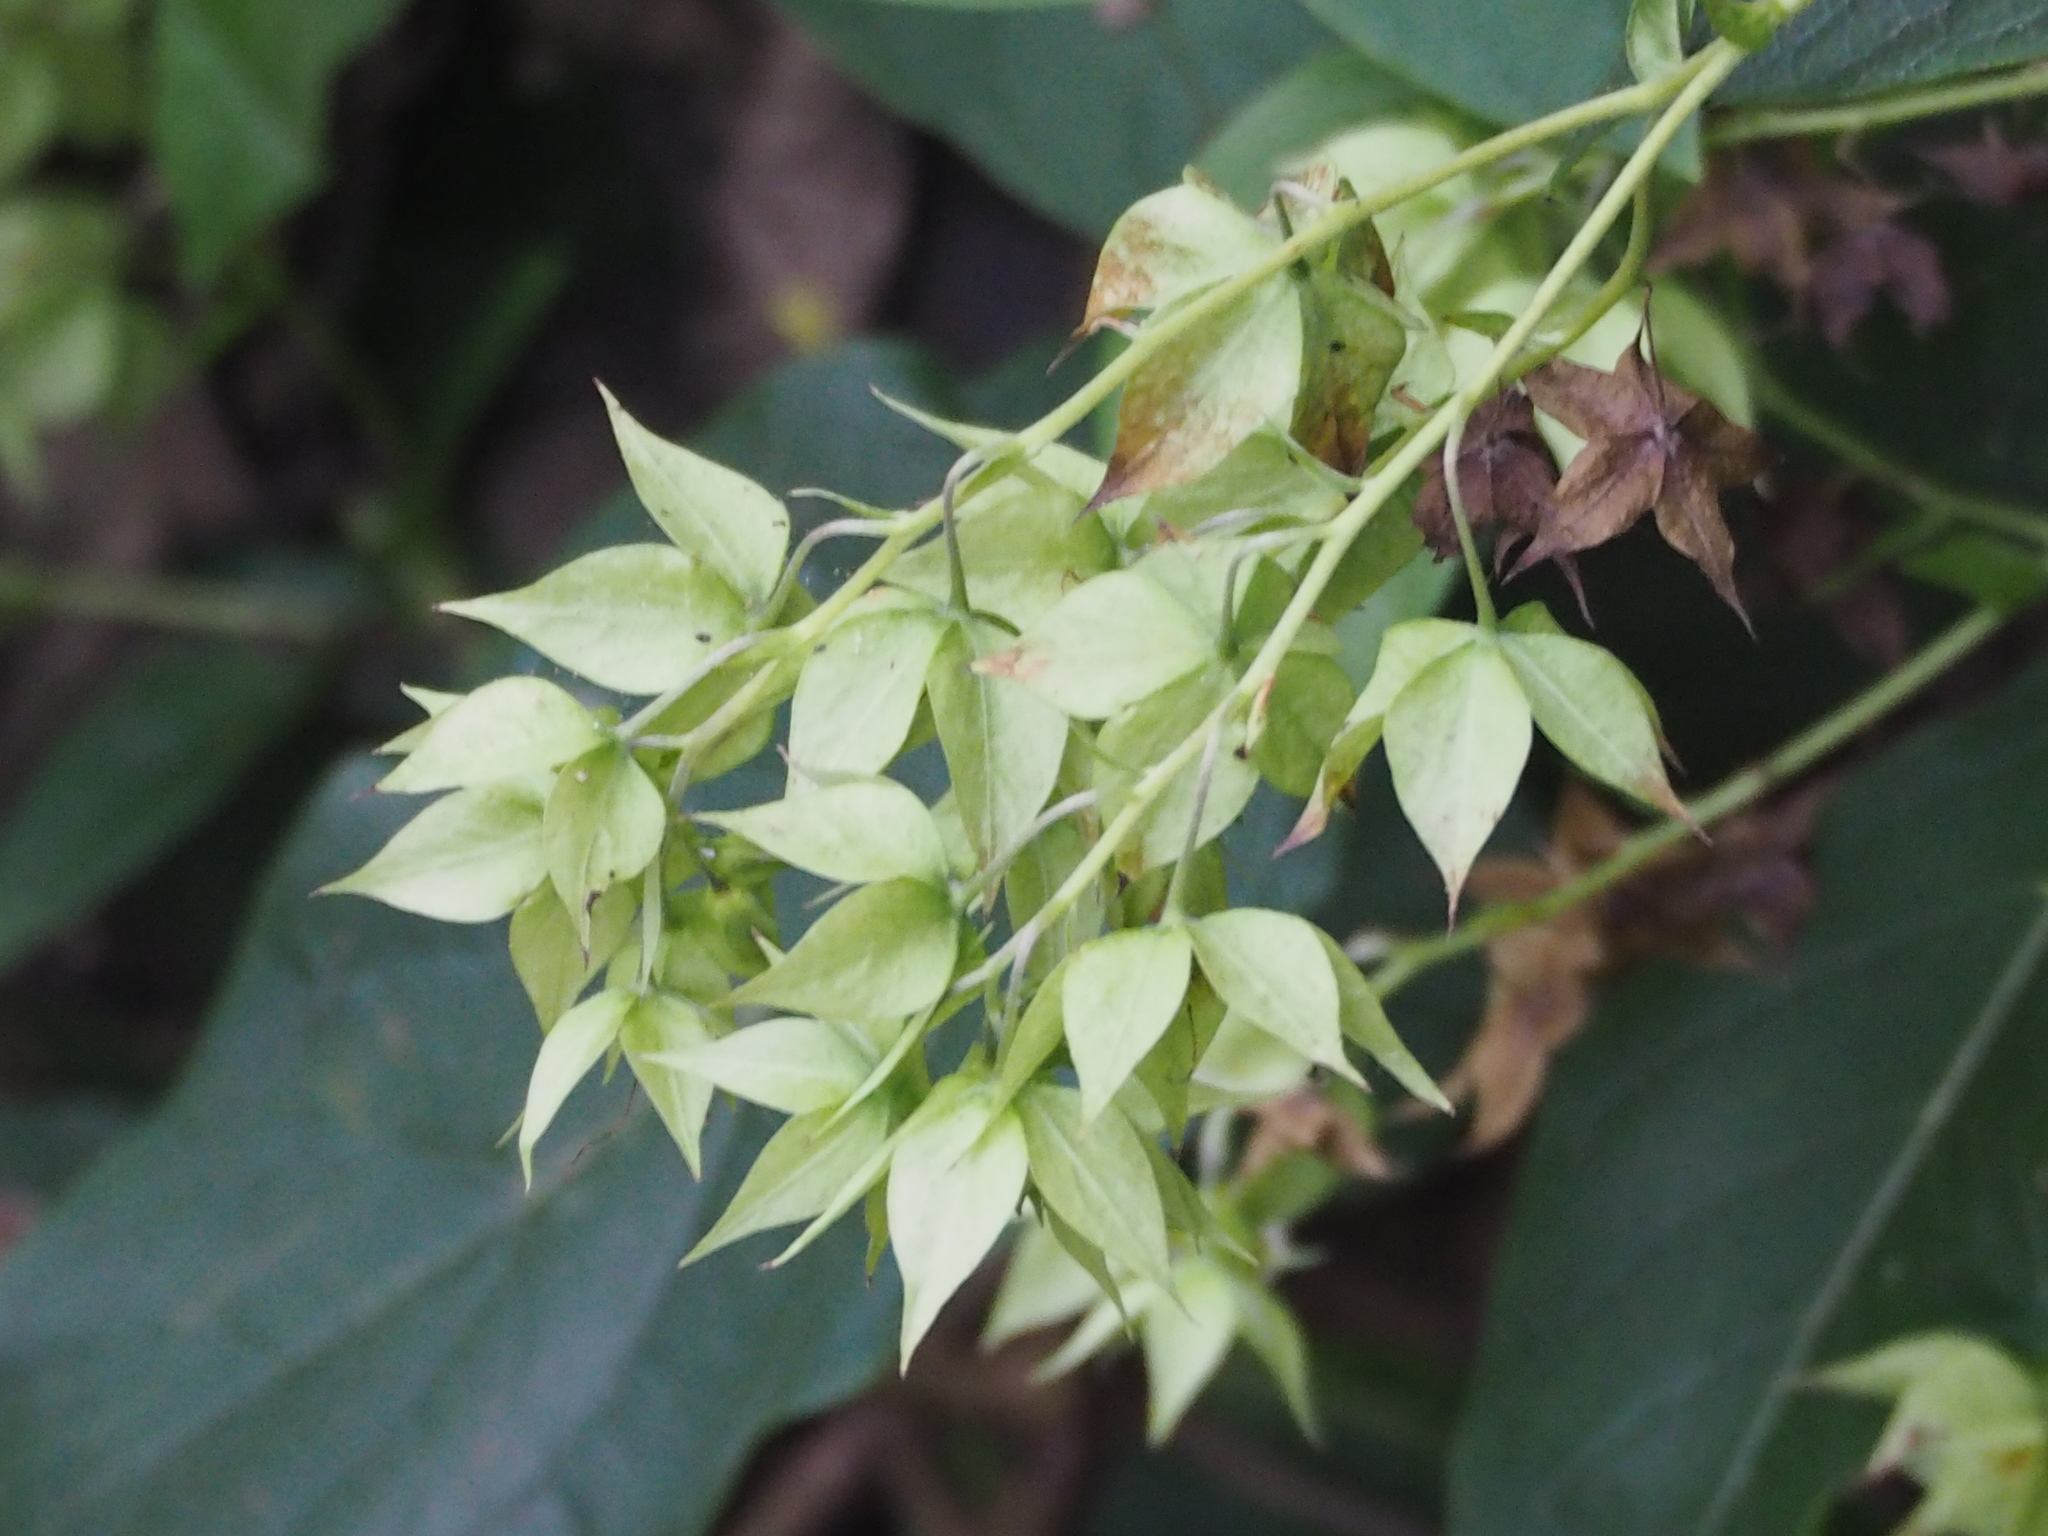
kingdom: Plantae
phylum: Tracheophyta
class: Magnoliopsida
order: Boraginales
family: Boraginaceae
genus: Trichodesma
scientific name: Trichodesma calycosum
